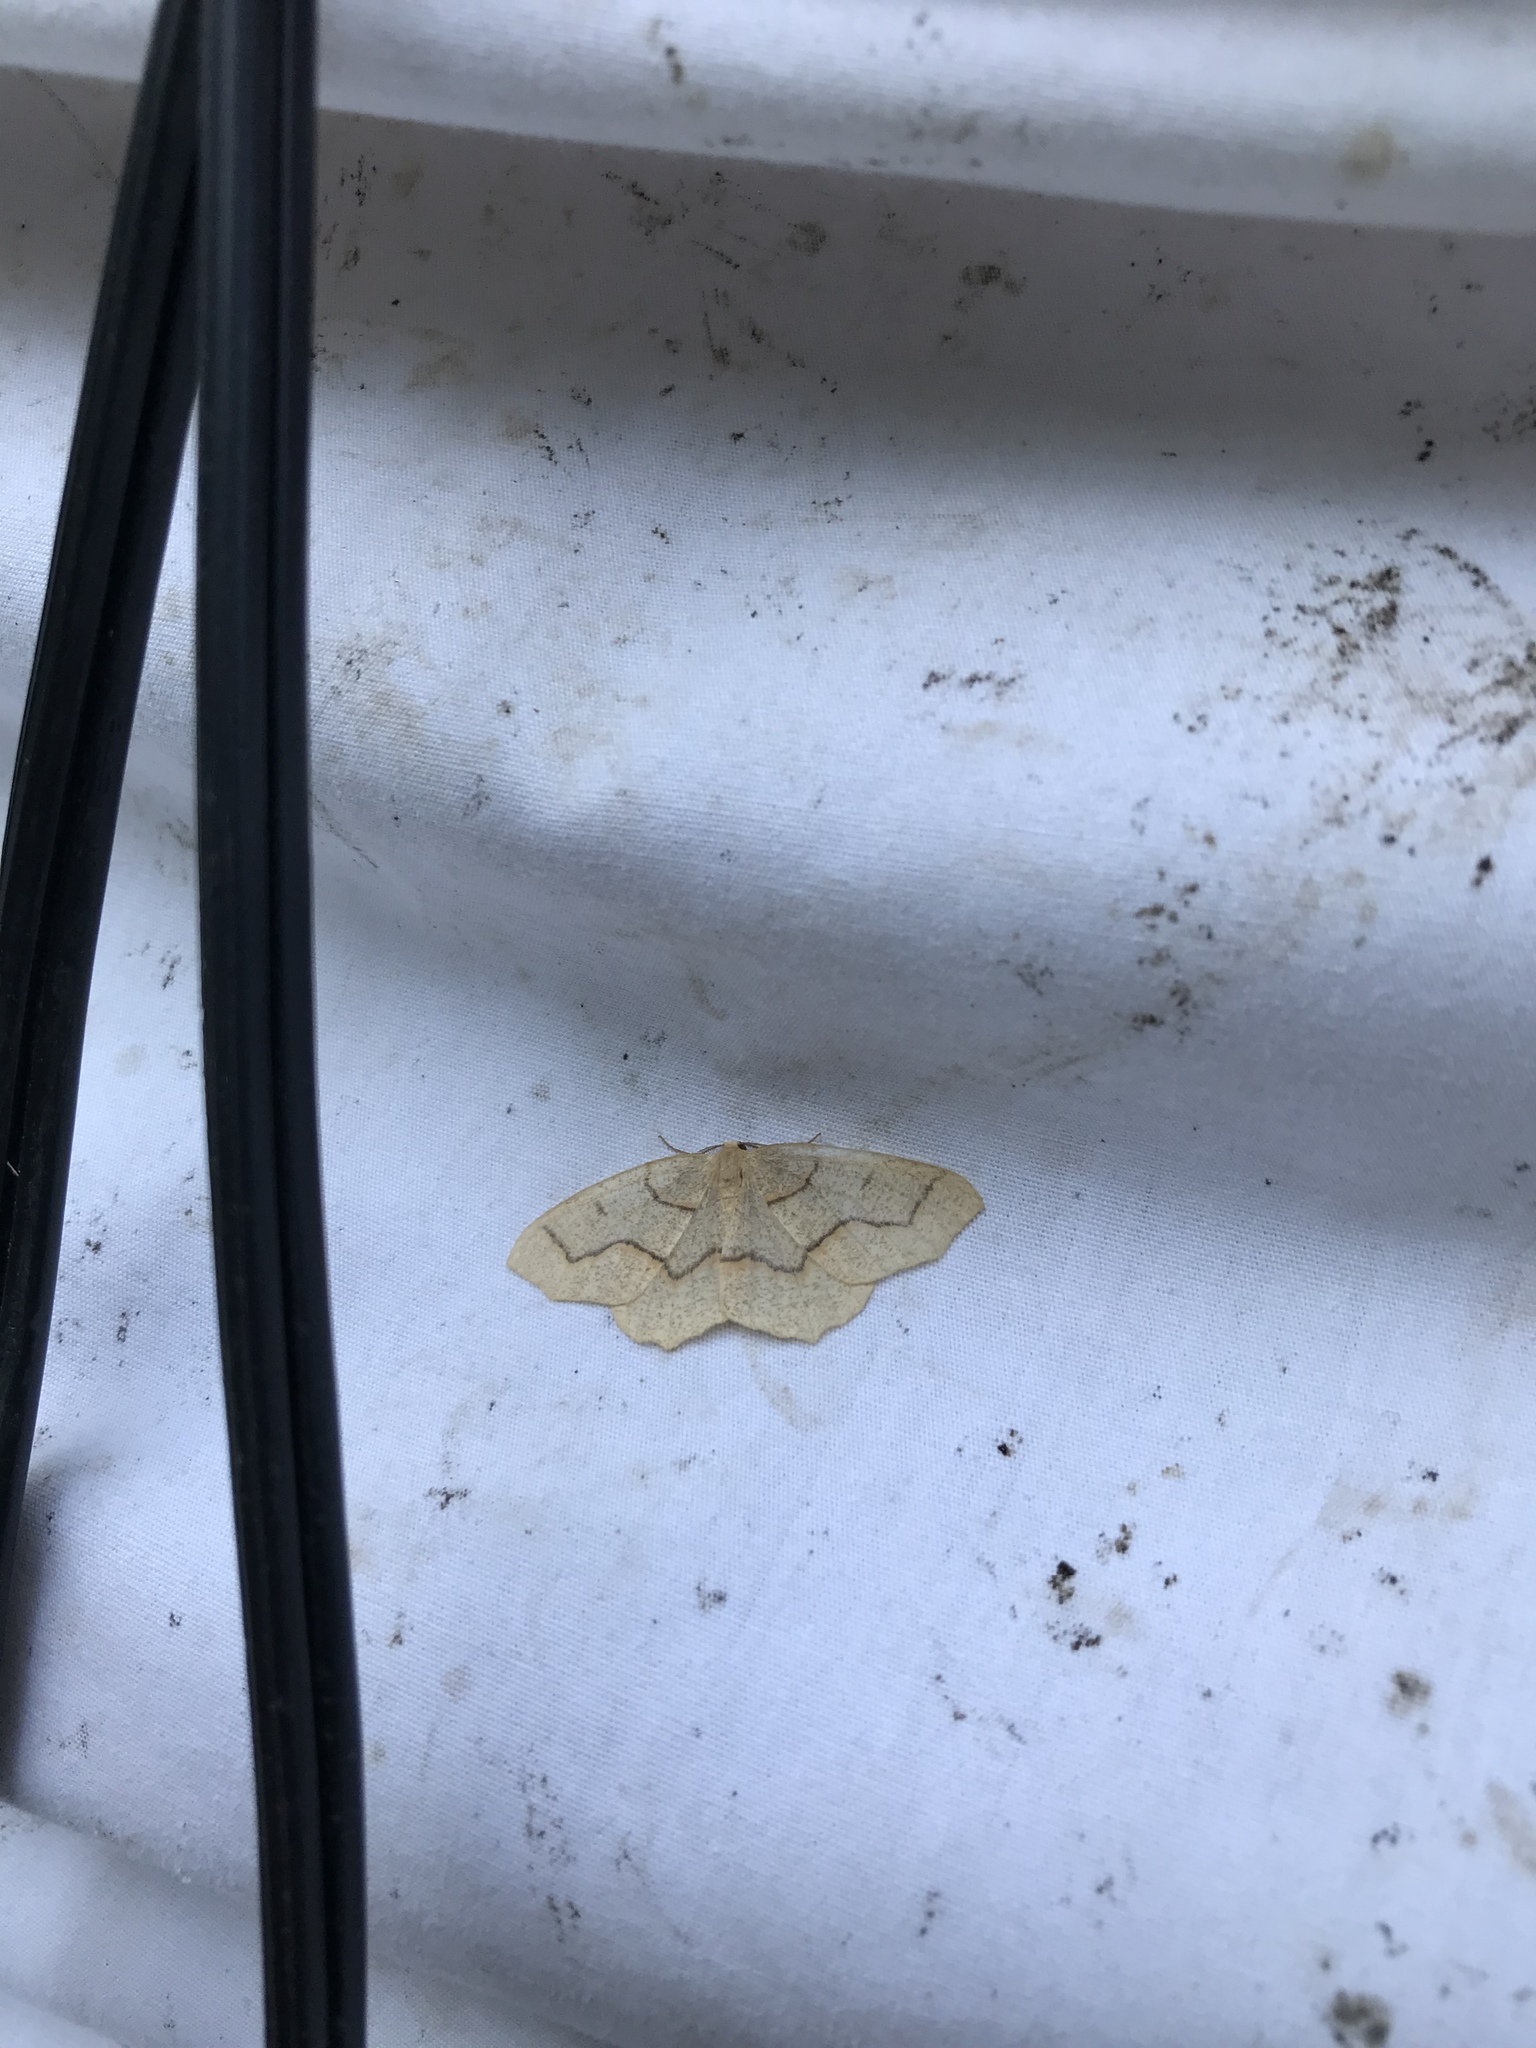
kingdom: Animalia
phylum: Arthropoda
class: Insecta
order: Lepidoptera
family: Geometridae
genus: Lambdina
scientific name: Lambdina fiscellaria
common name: Hemlock looper
